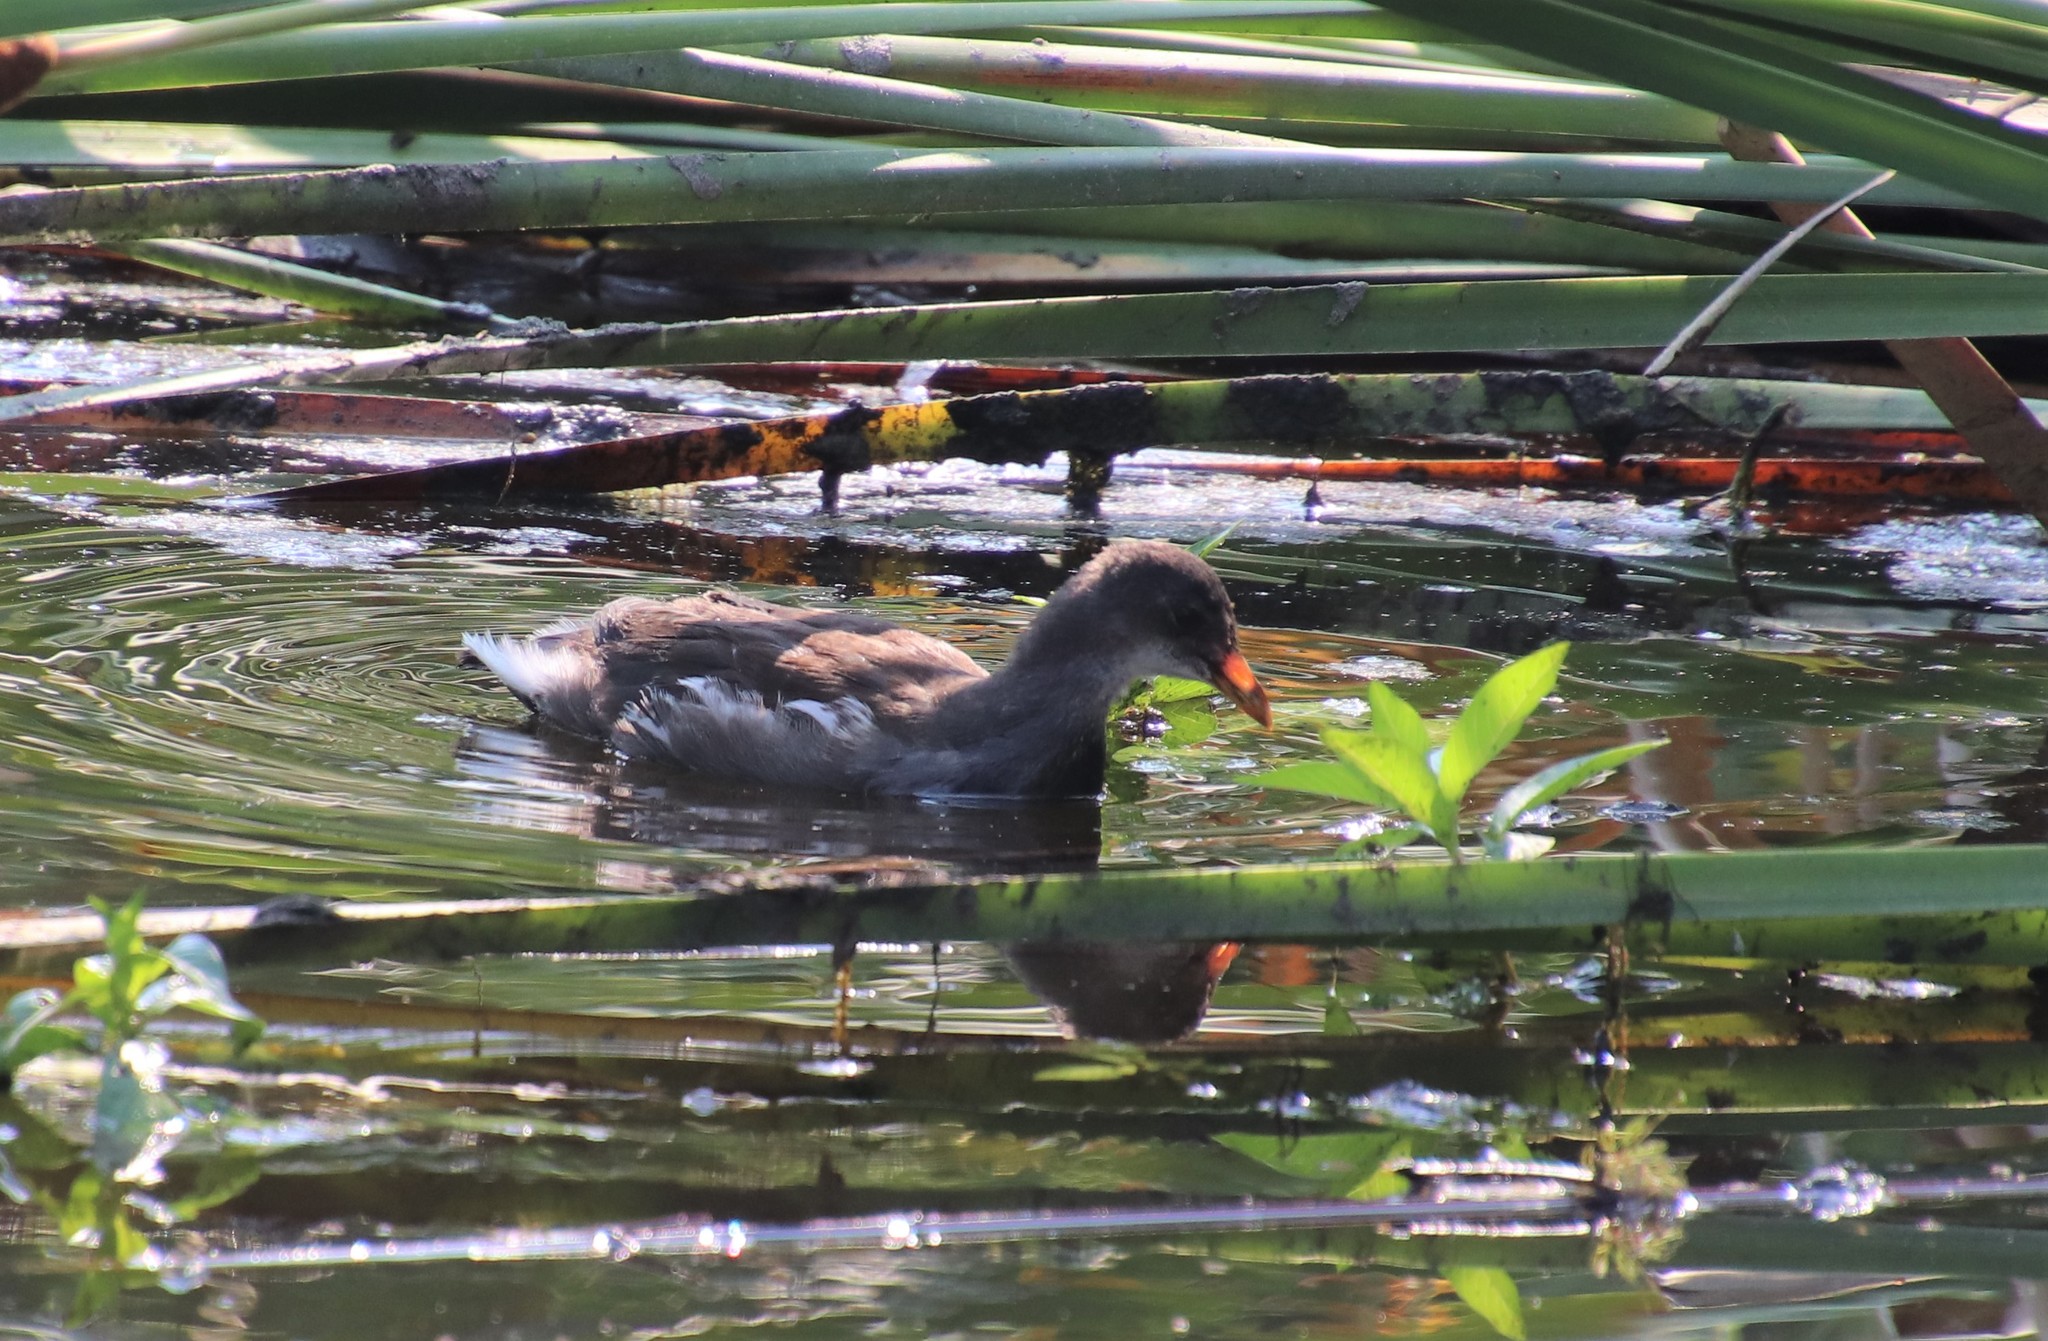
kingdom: Animalia
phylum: Chordata
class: Aves
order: Gruiformes
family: Rallidae
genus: Gallinula
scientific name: Gallinula chloropus
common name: Common moorhen
